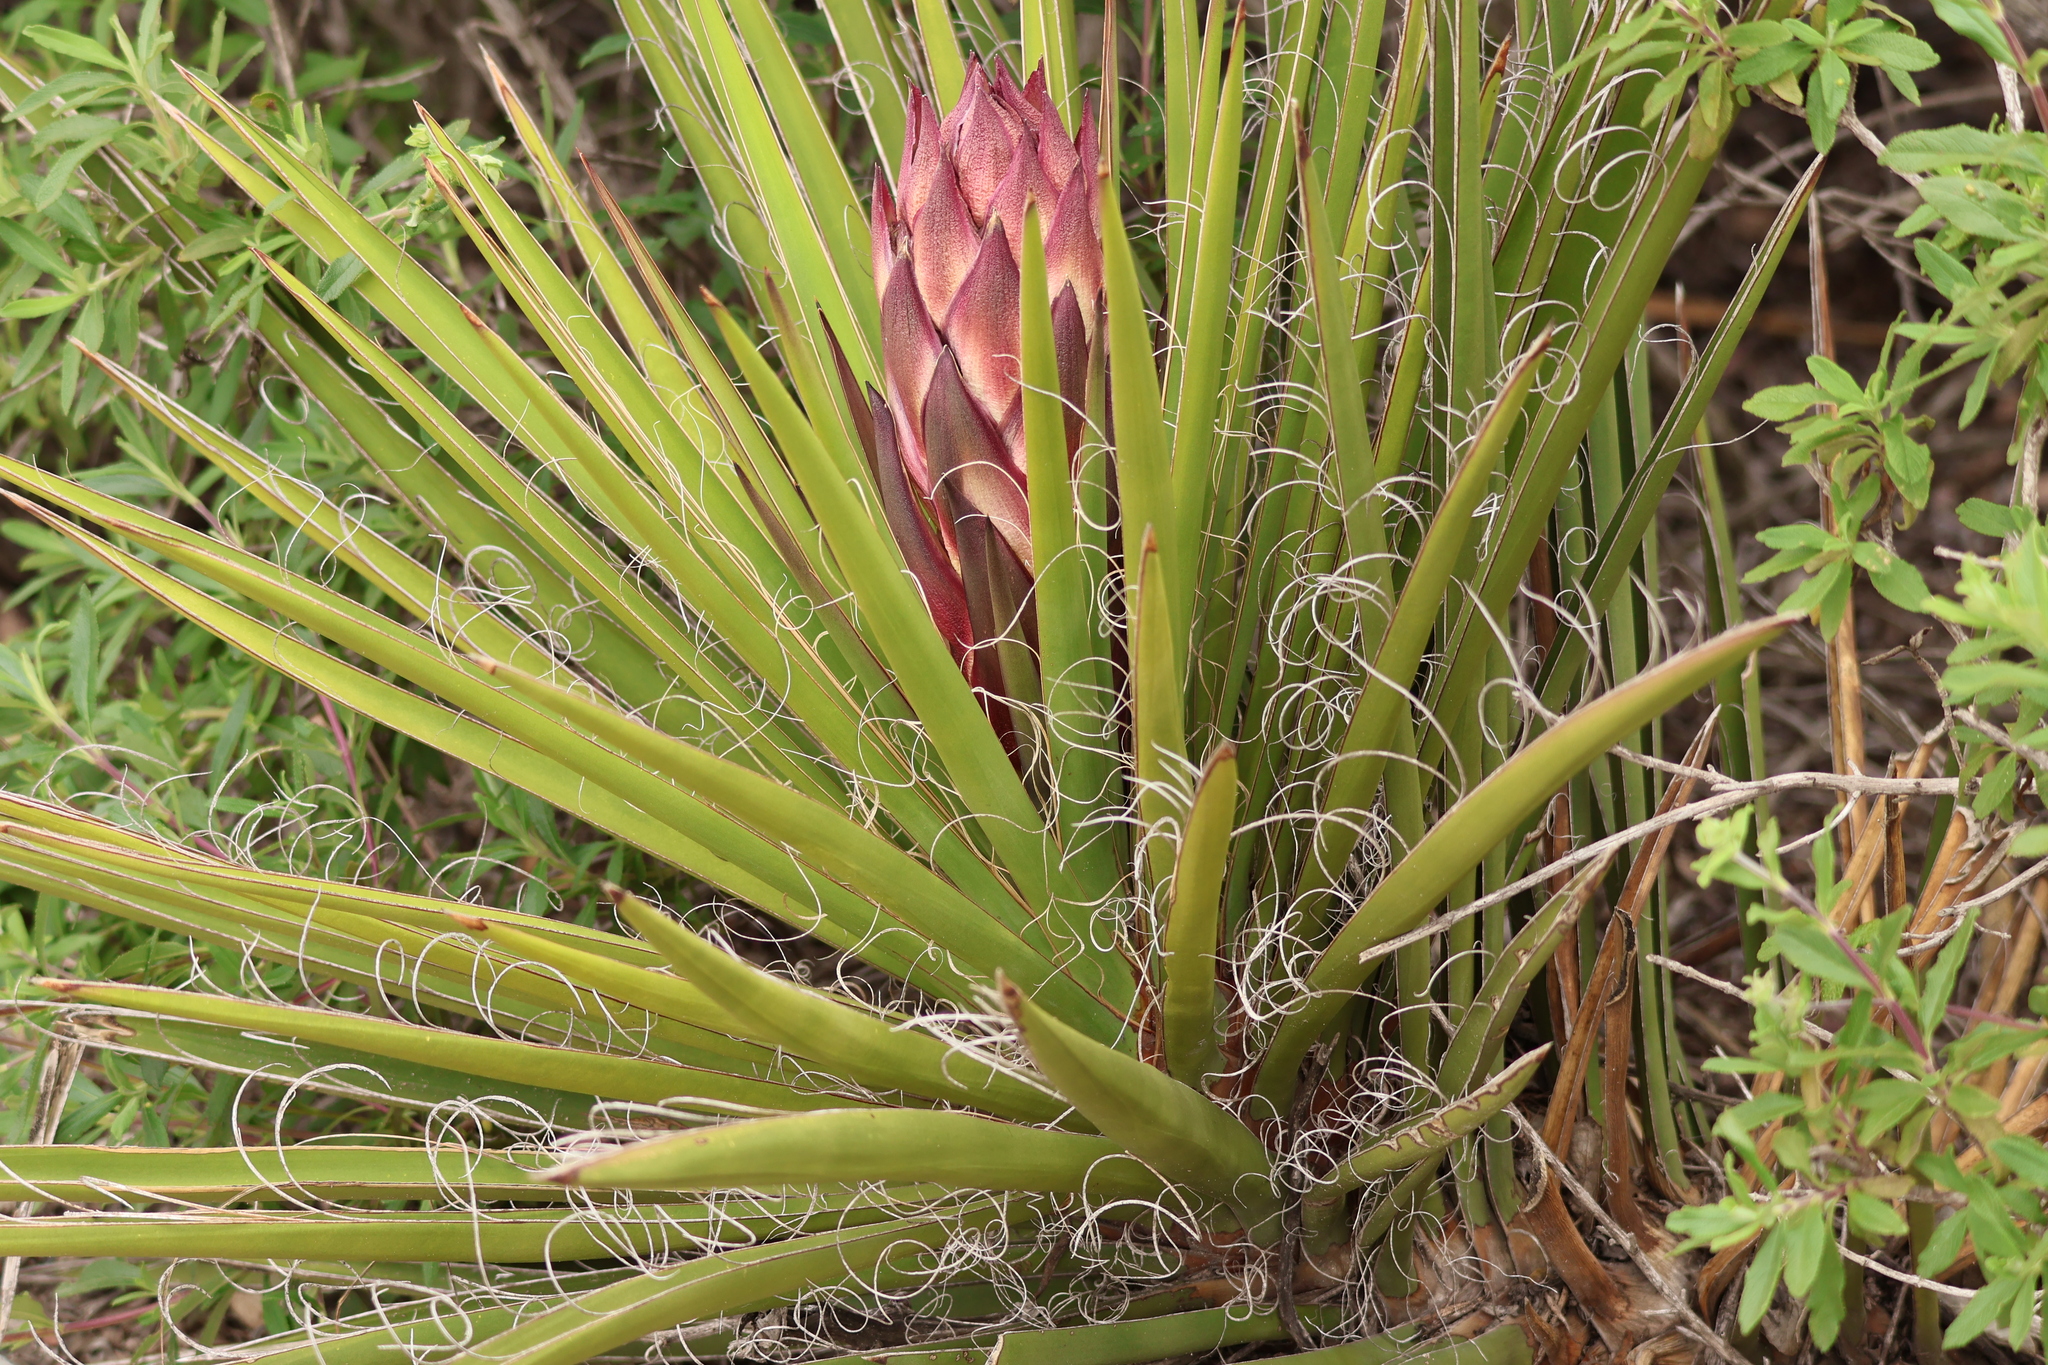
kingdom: Plantae
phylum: Tracheophyta
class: Liliopsida
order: Asparagales
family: Asparagaceae
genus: Yucca
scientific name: Yucca schidigera
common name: Mojave yucca
